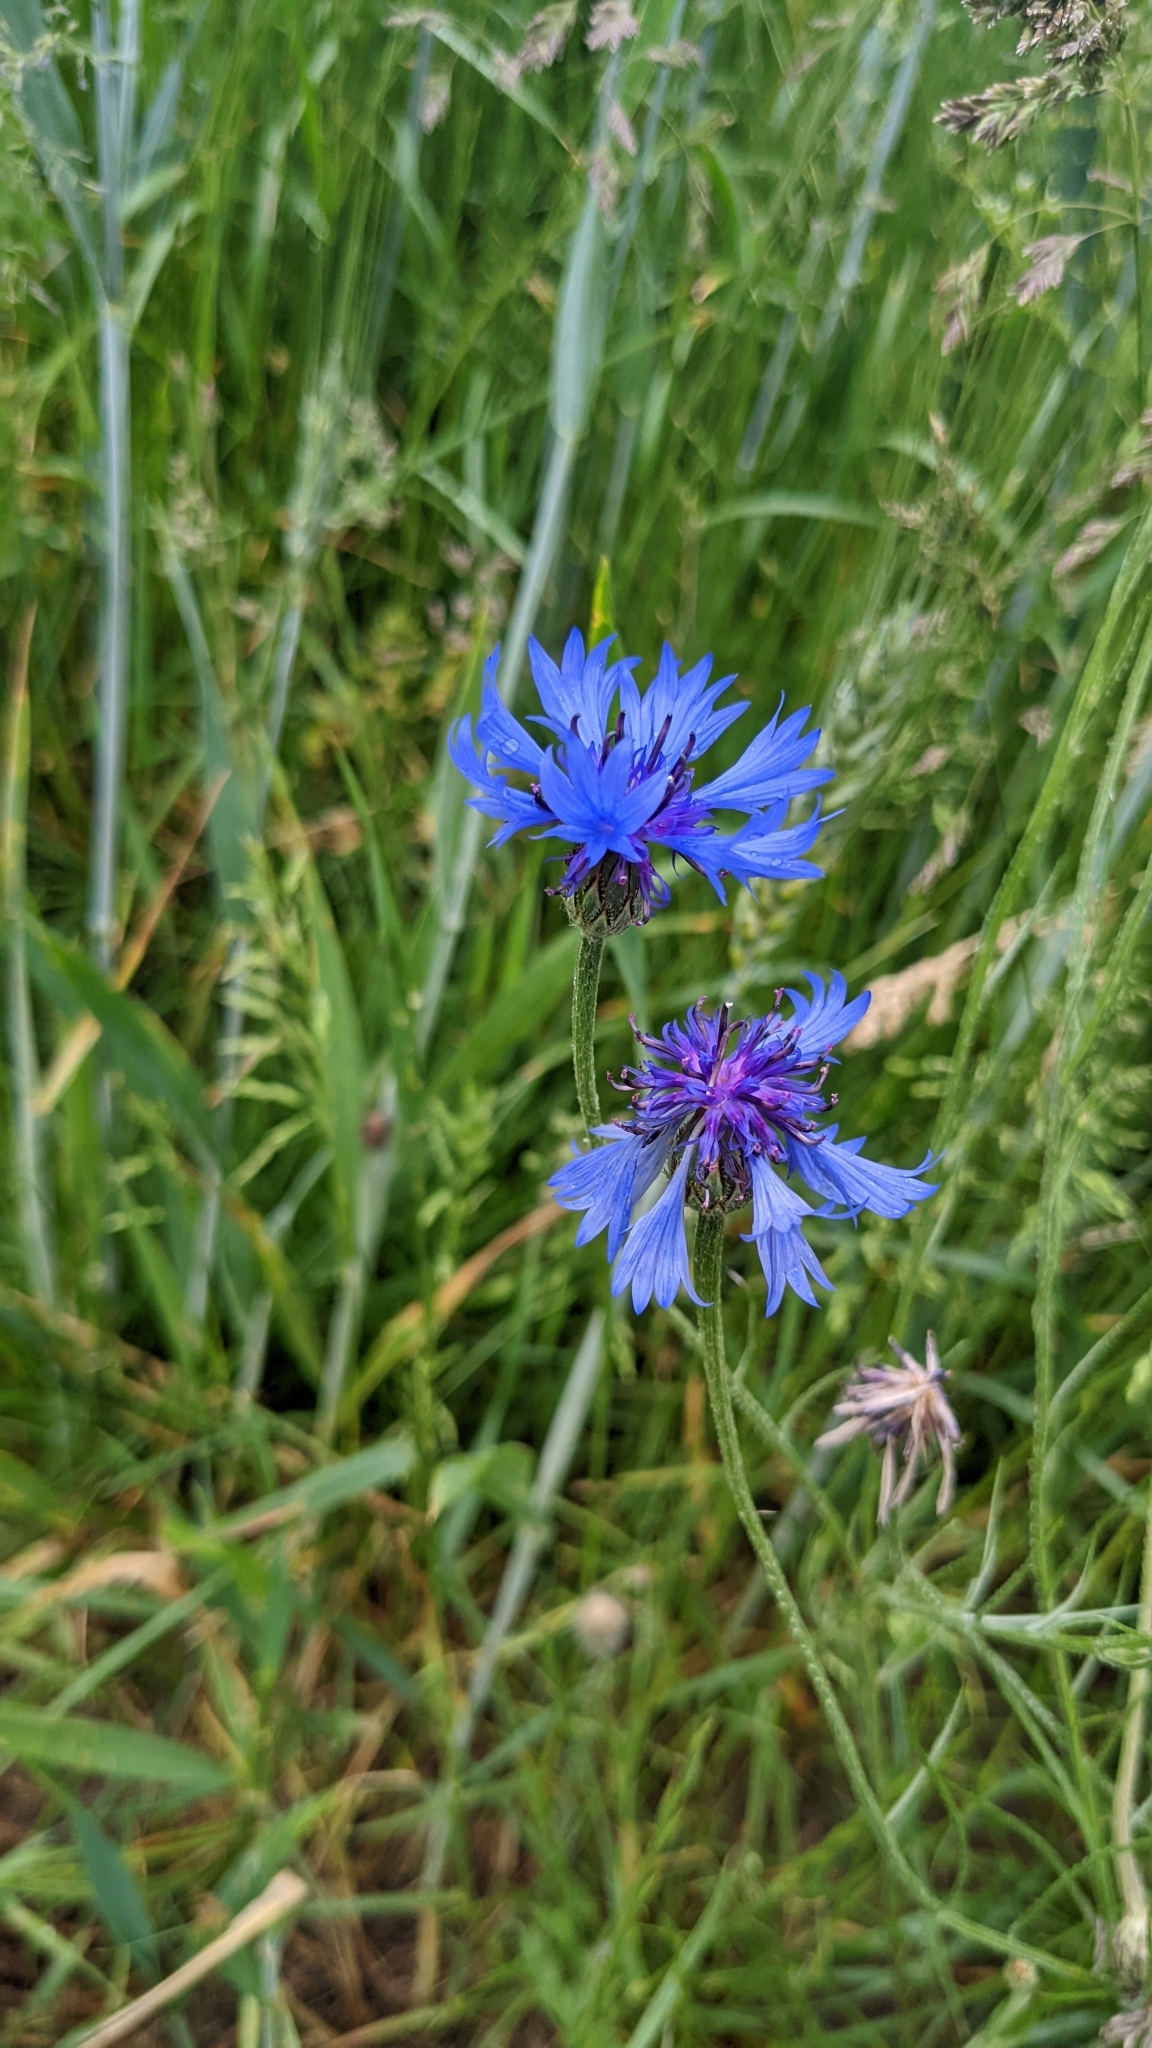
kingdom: Plantae
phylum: Tracheophyta
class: Magnoliopsida
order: Asterales
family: Asteraceae
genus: Centaurea
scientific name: Centaurea cyanus
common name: Cornflower
